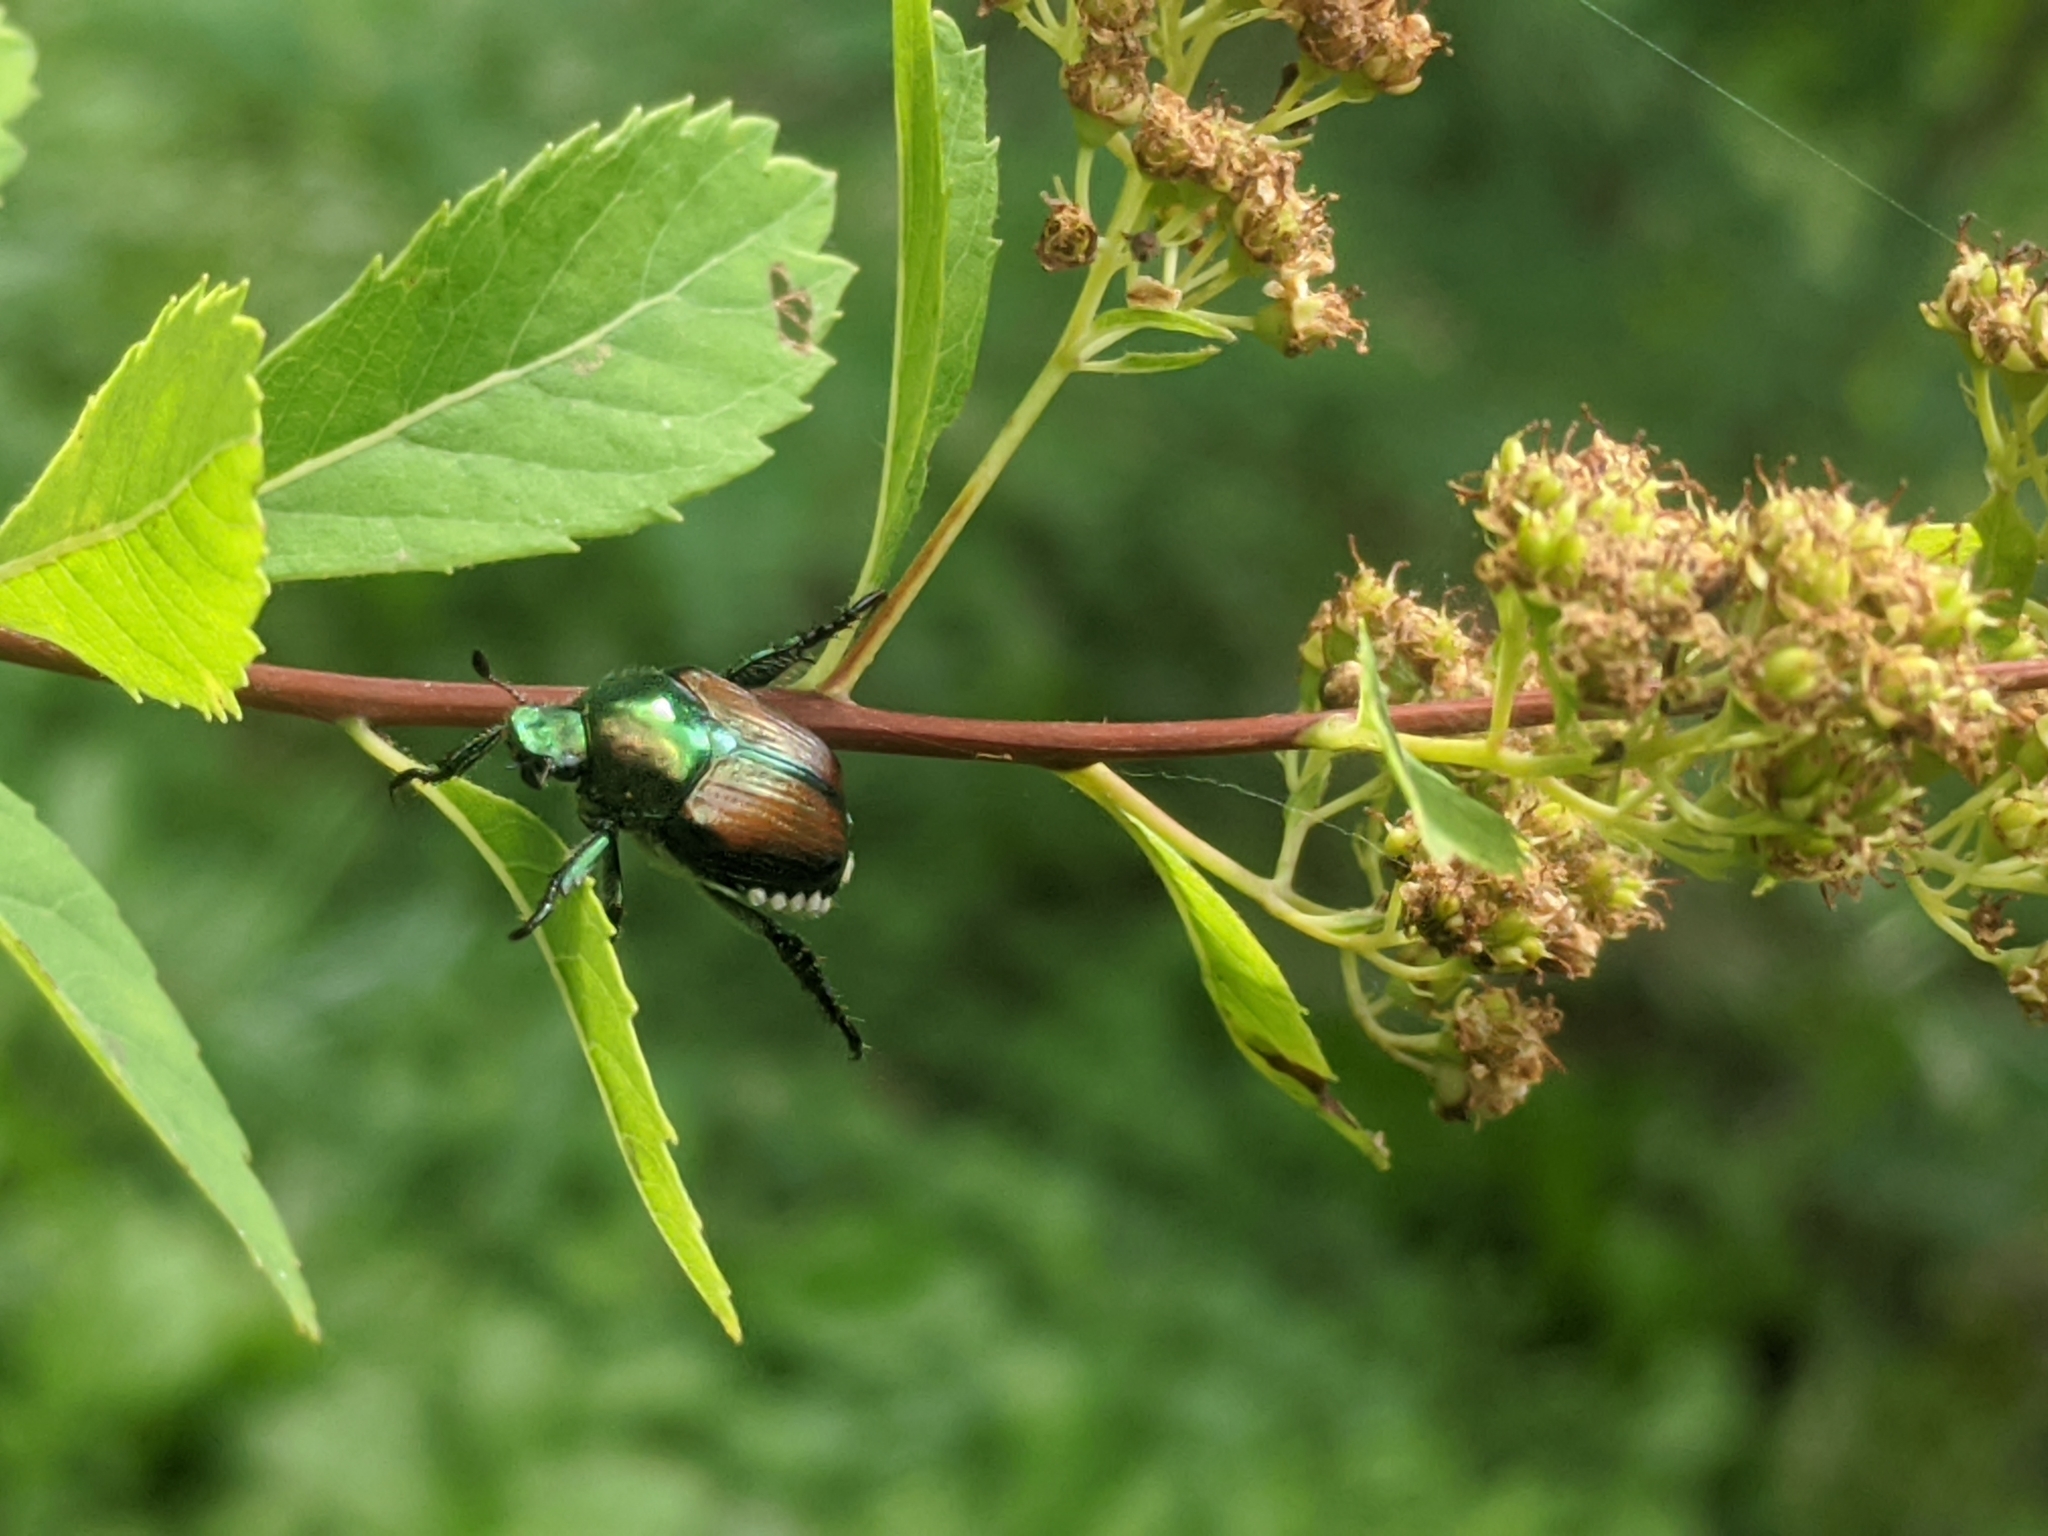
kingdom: Animalia
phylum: Arthropoda
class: Insecta
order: Coleoptera
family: Scarabaeidae
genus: Popillia
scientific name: Popillia japonica
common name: Japanese beetle
